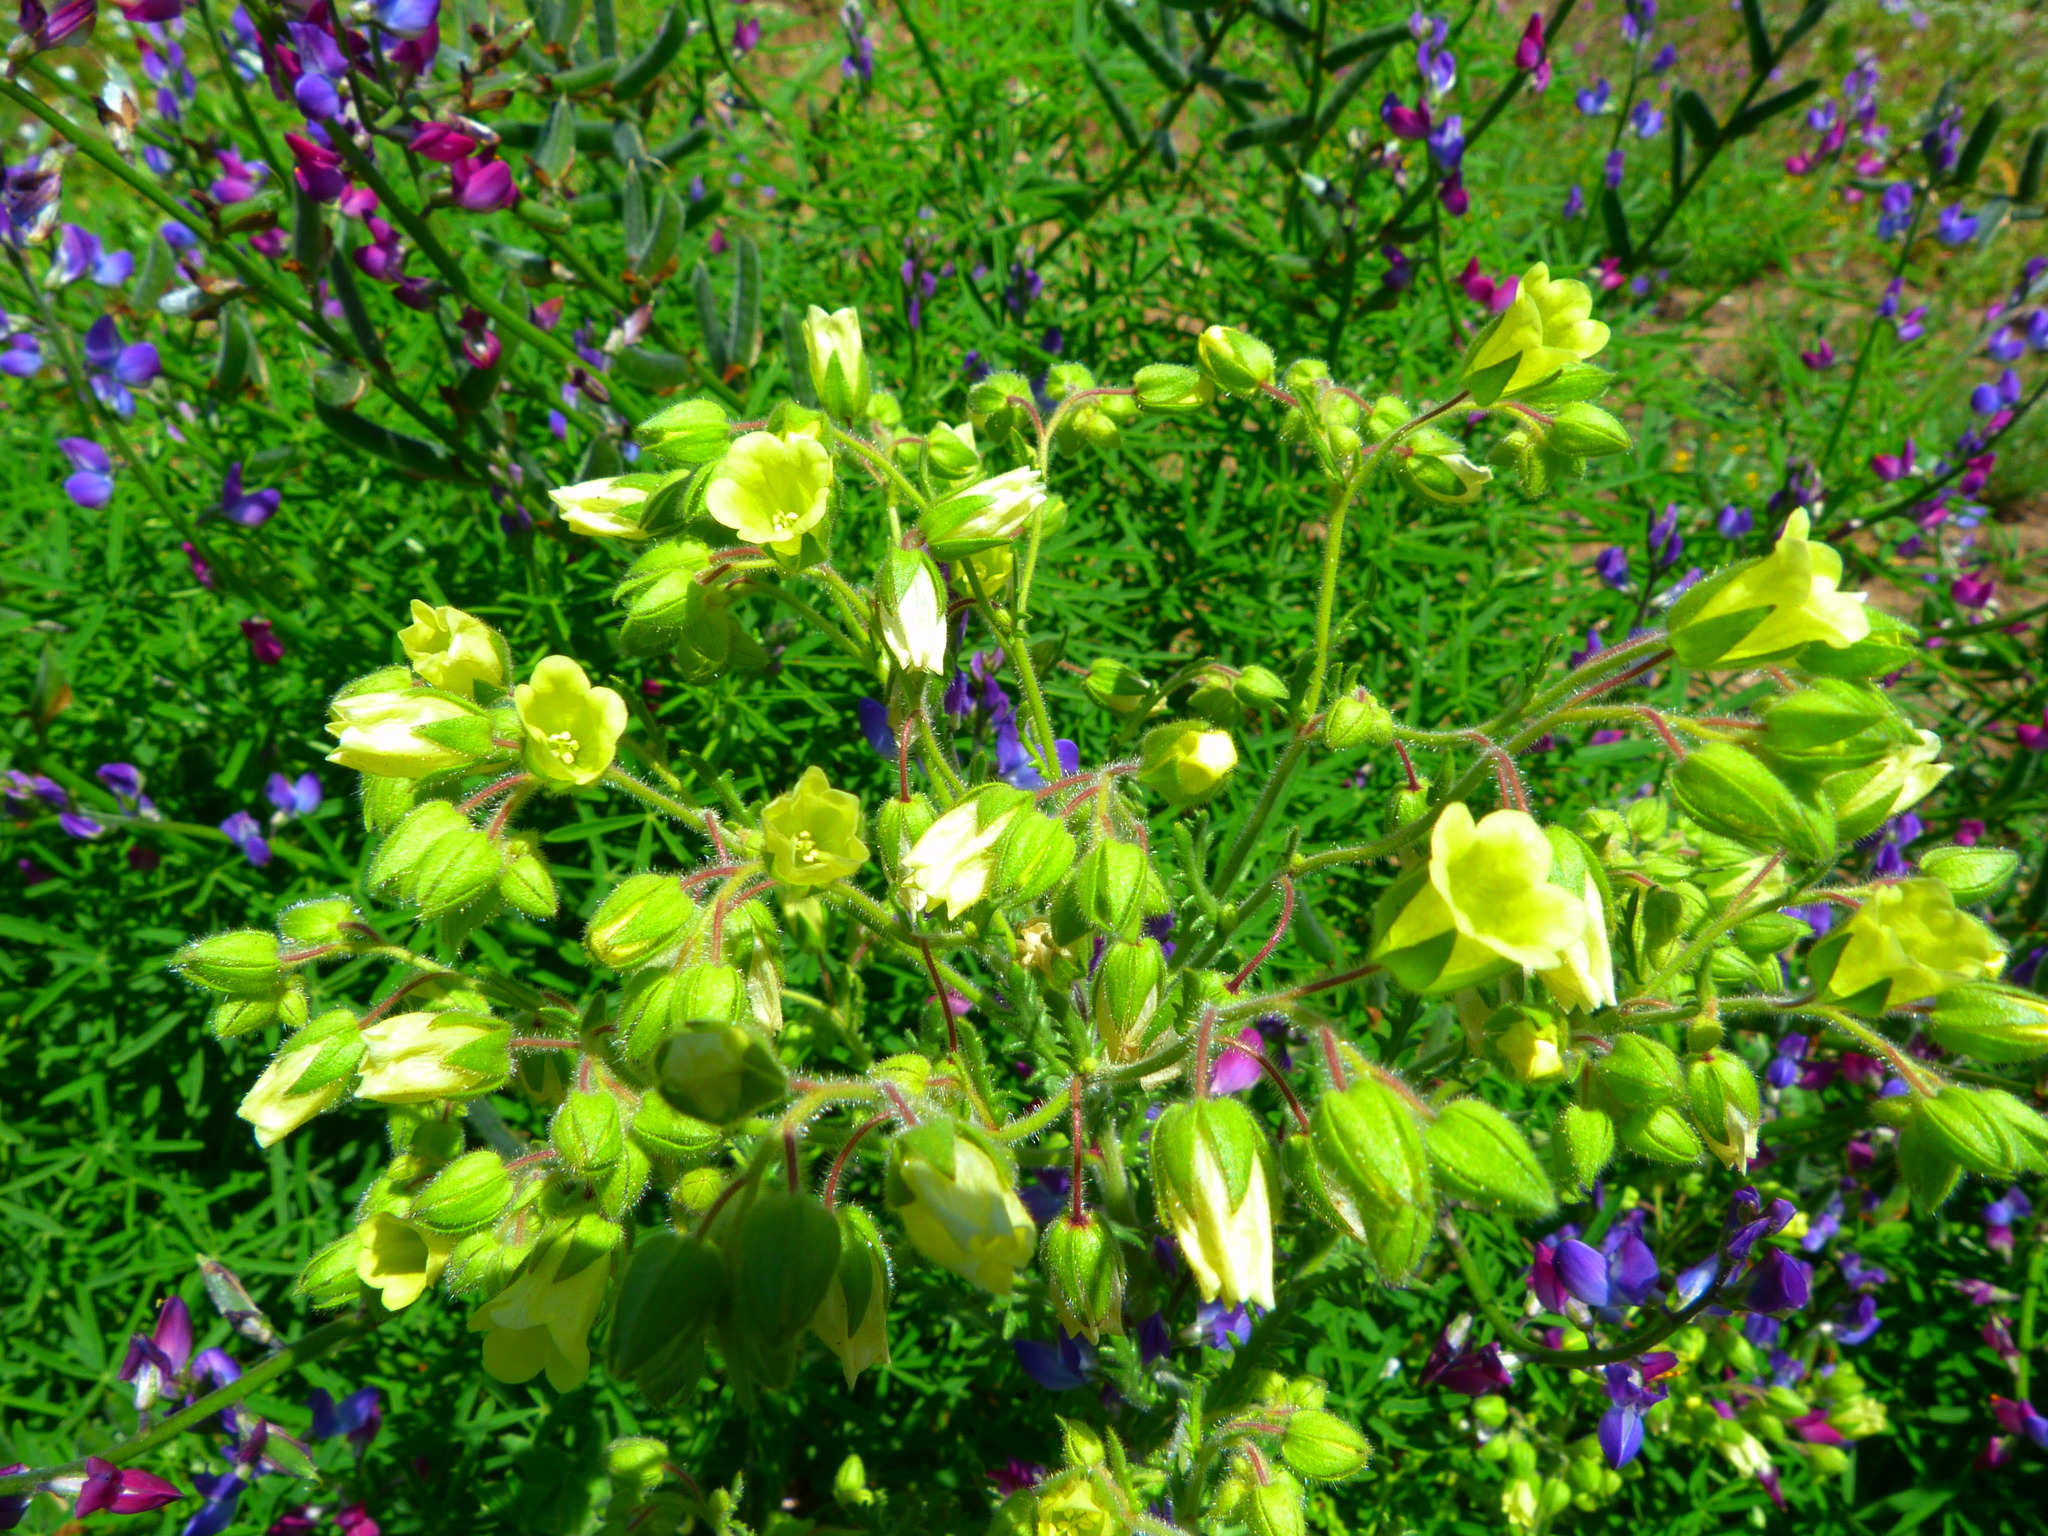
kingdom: Plantae
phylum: Tracheophyta
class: Magnoliopsida
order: Boraginales
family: Hydrophyllaceae
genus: Emmenanthe
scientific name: Emmenanthe penduliflora
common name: Whispering-bells
